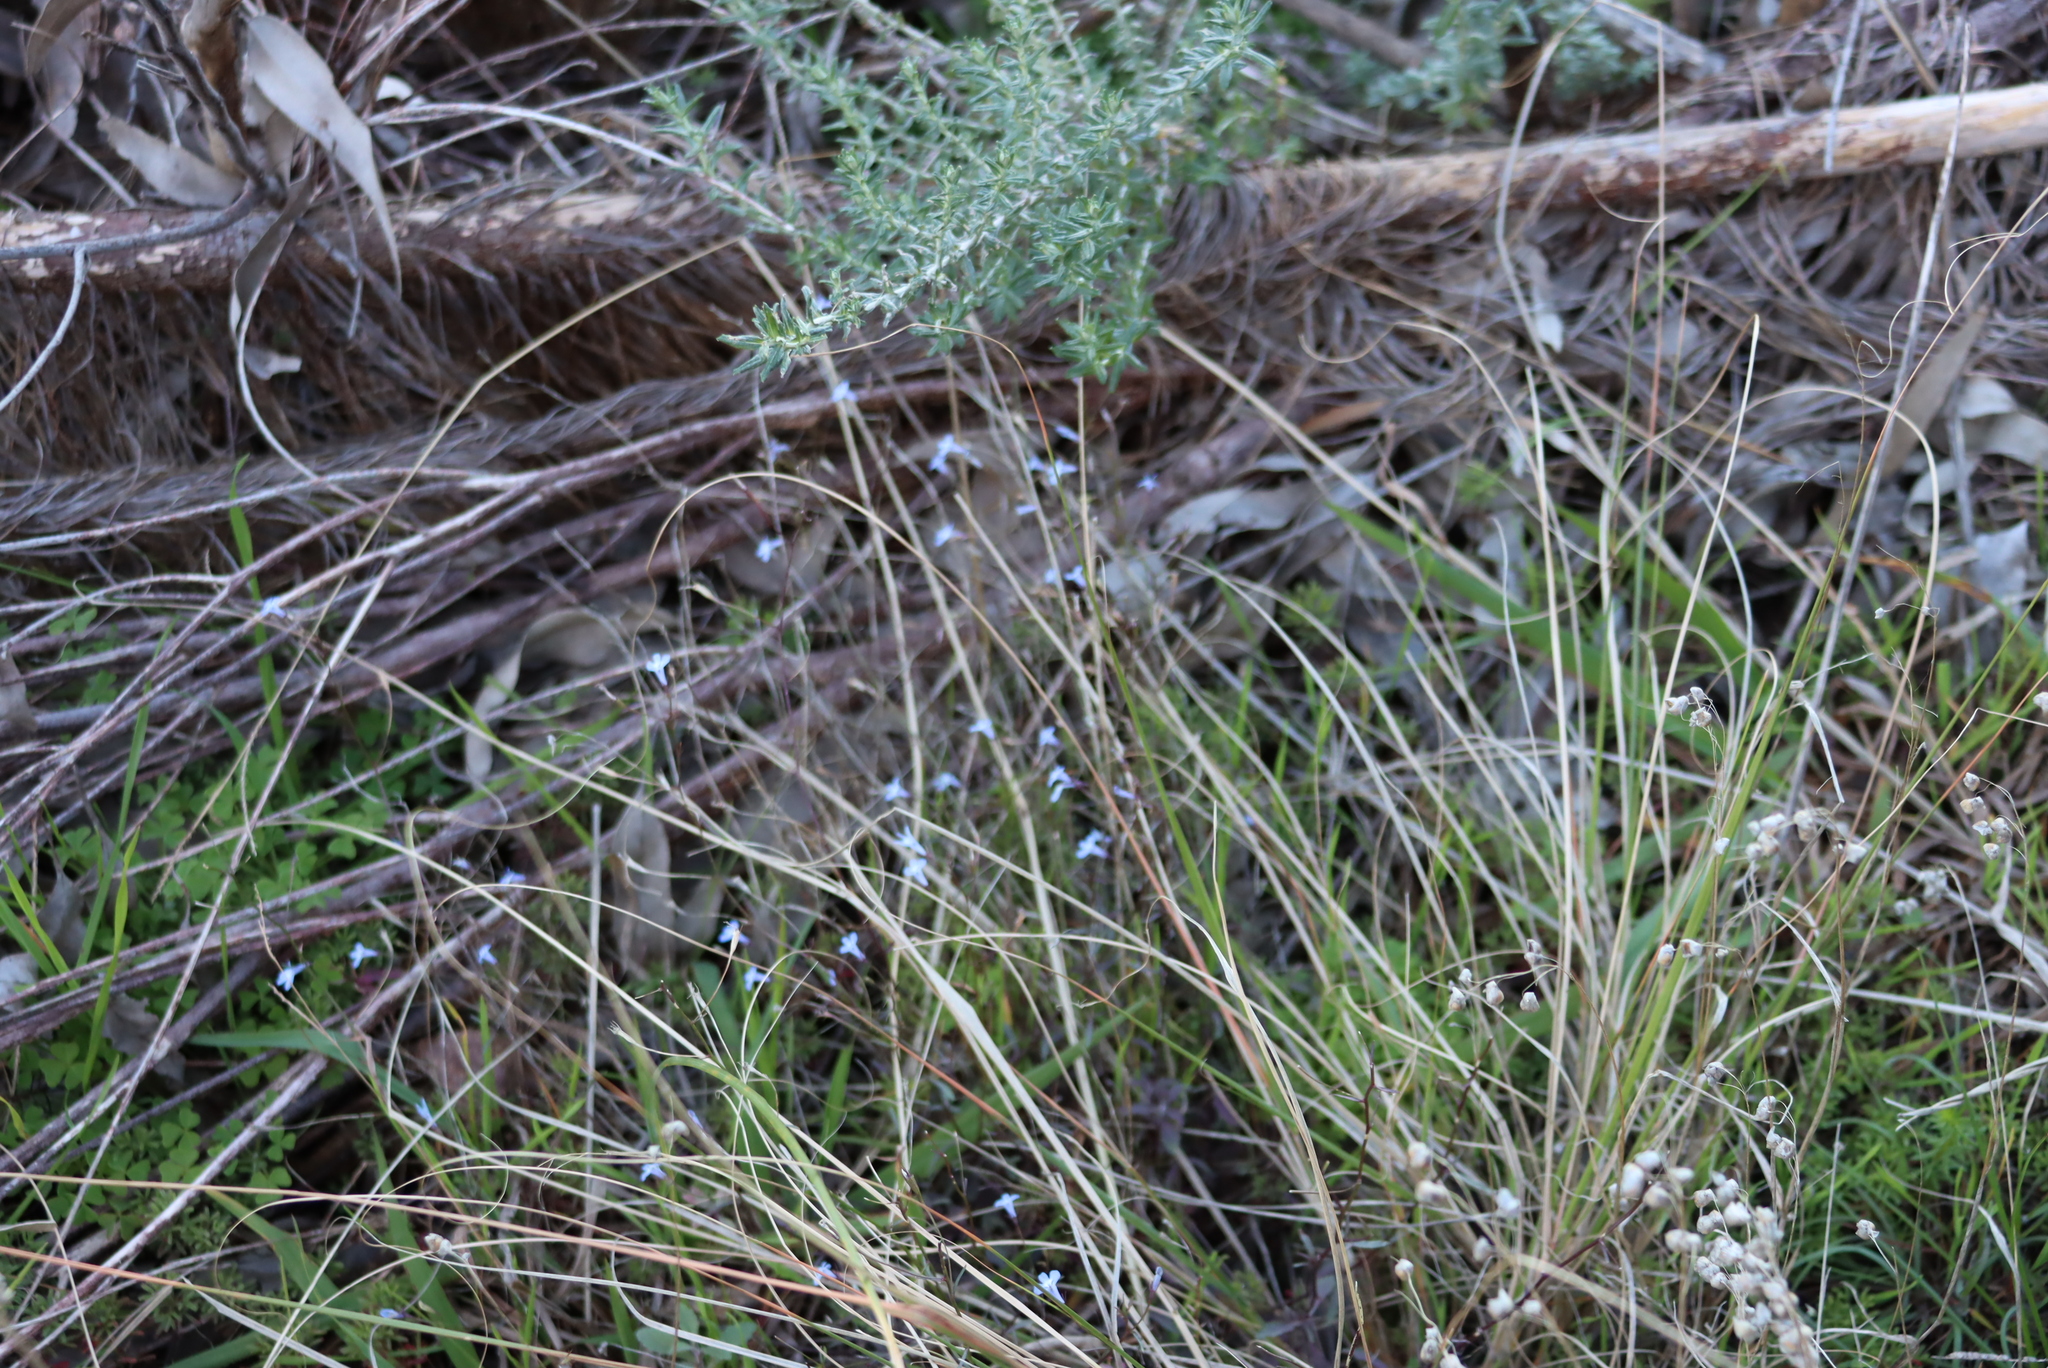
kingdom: Plantae
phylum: Tracheophyta
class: Magnoliopsida
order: Asterales
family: Campanulaceae
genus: Lobelia
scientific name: Lobelia erinus
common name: Edging lobelia
